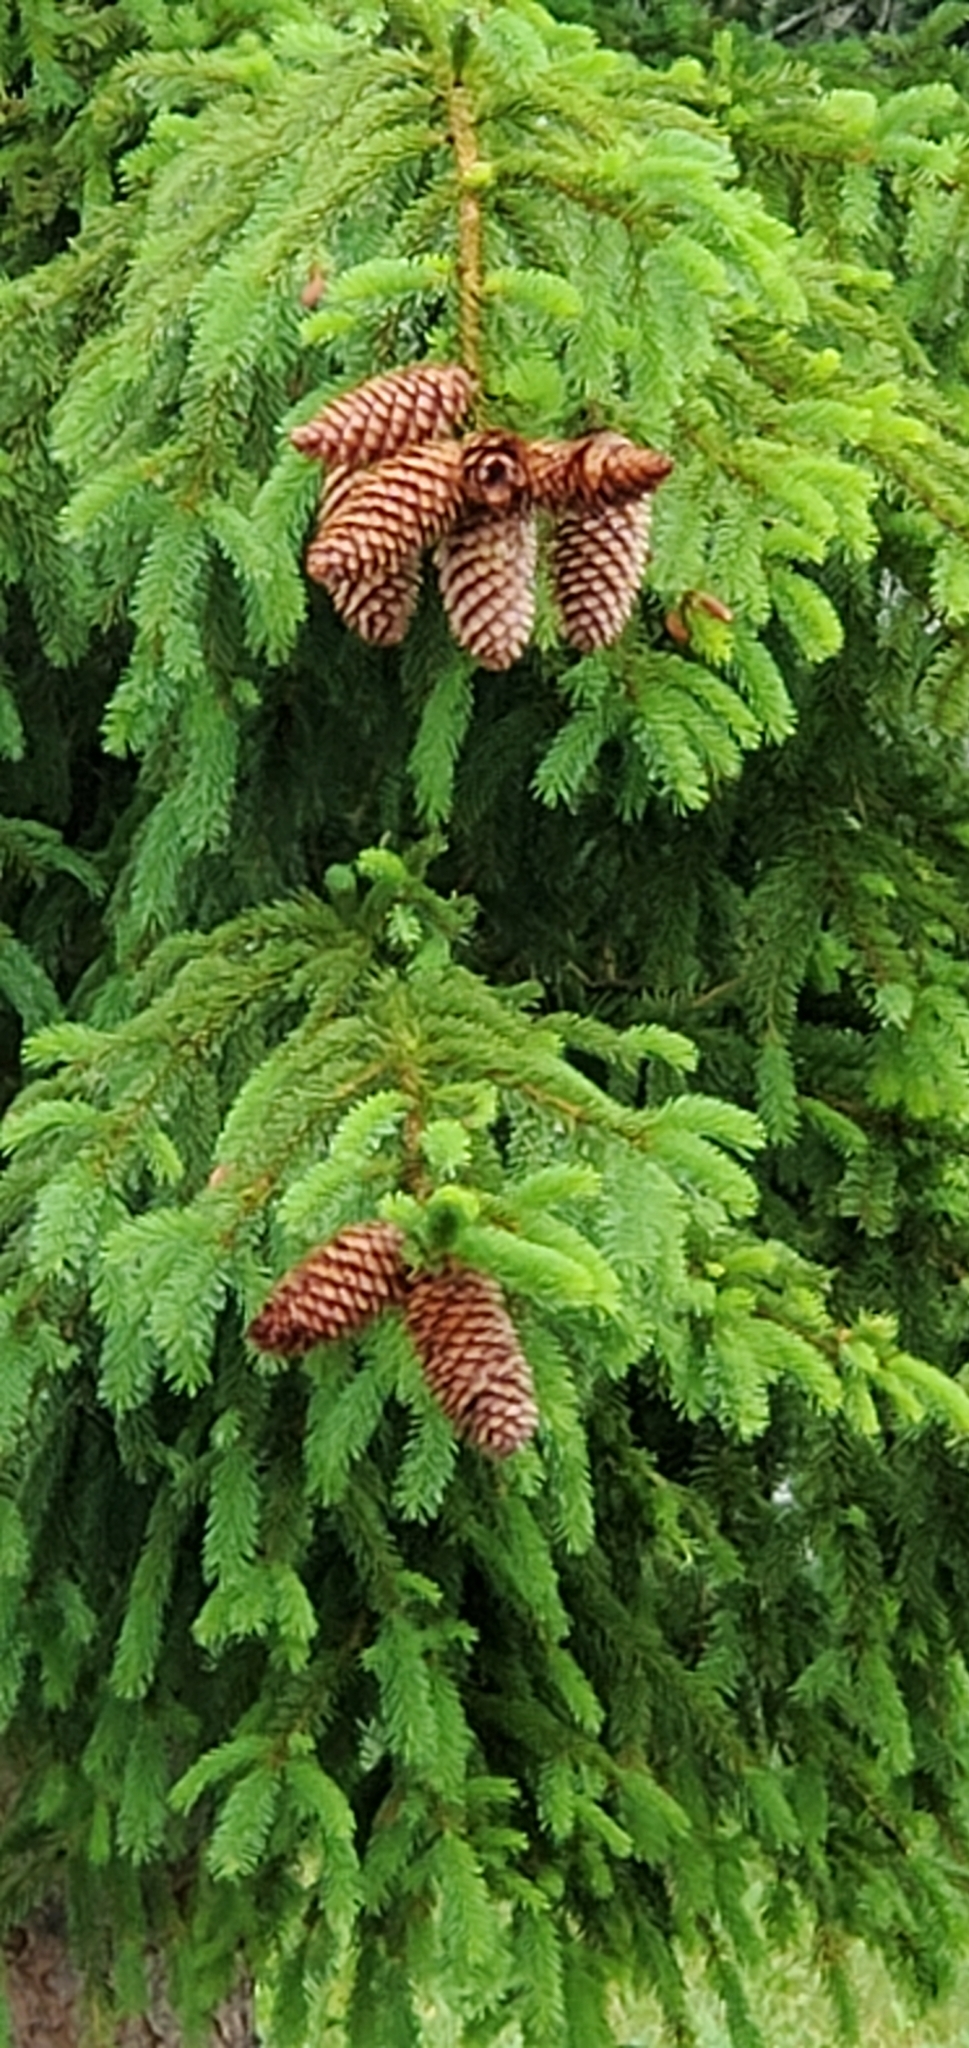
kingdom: Plantae
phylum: Tracheophyta
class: Pinopsida
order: Pinales
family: Pinaceae
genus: Picea
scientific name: Picea engelmannii
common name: Engelmann spruce
